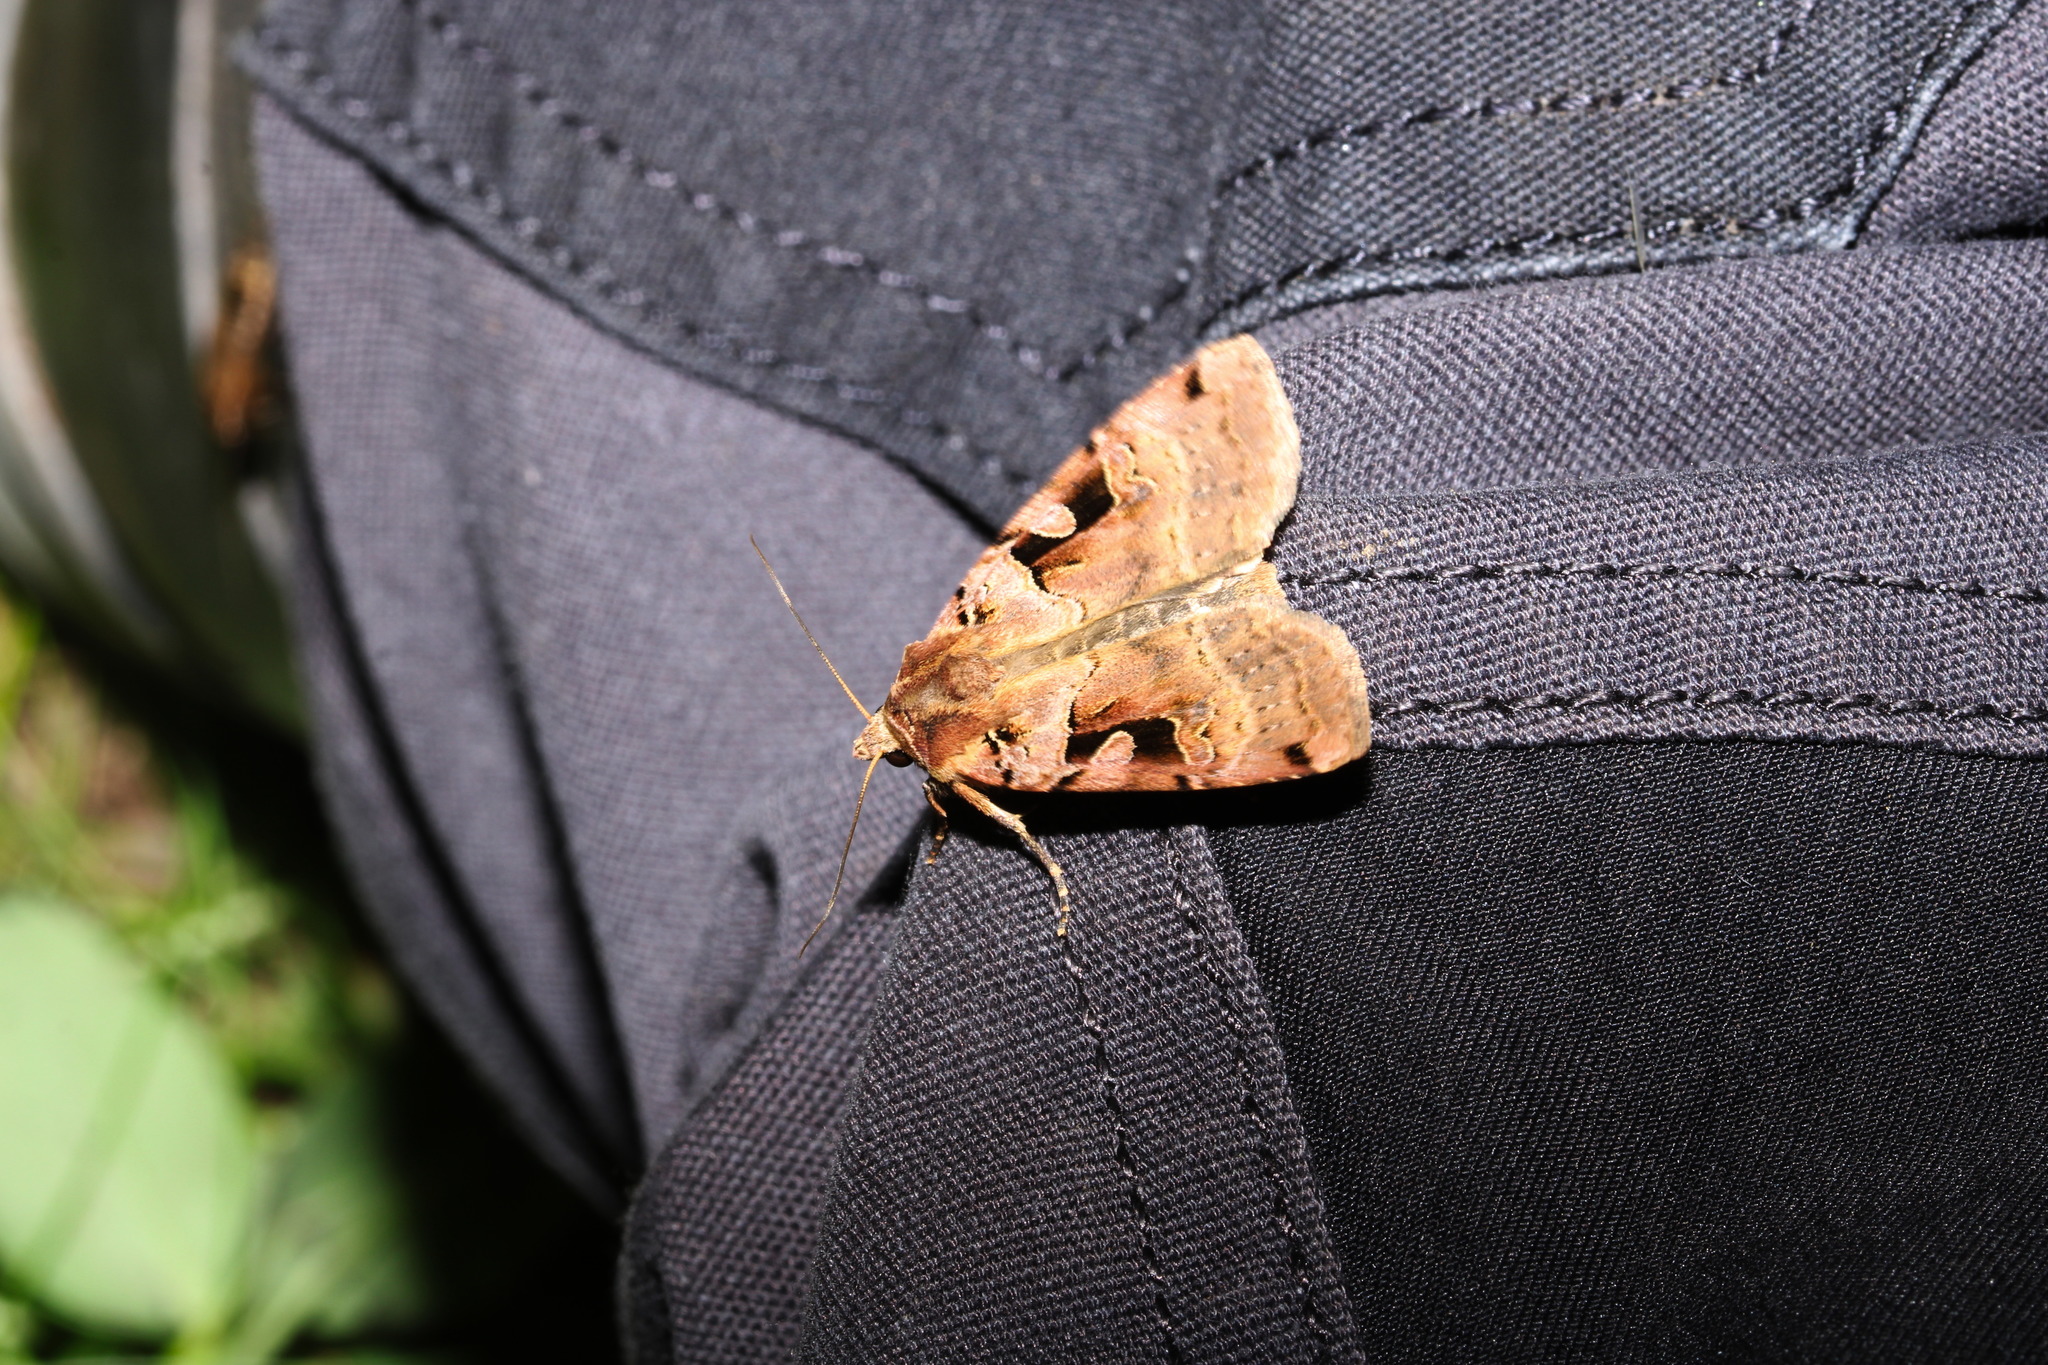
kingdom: Animalia
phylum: Arthropoda
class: Insecta
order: Lepidoptera
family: Noctuidae
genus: Xestia
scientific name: Xestia triangulum
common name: Double square-spot
